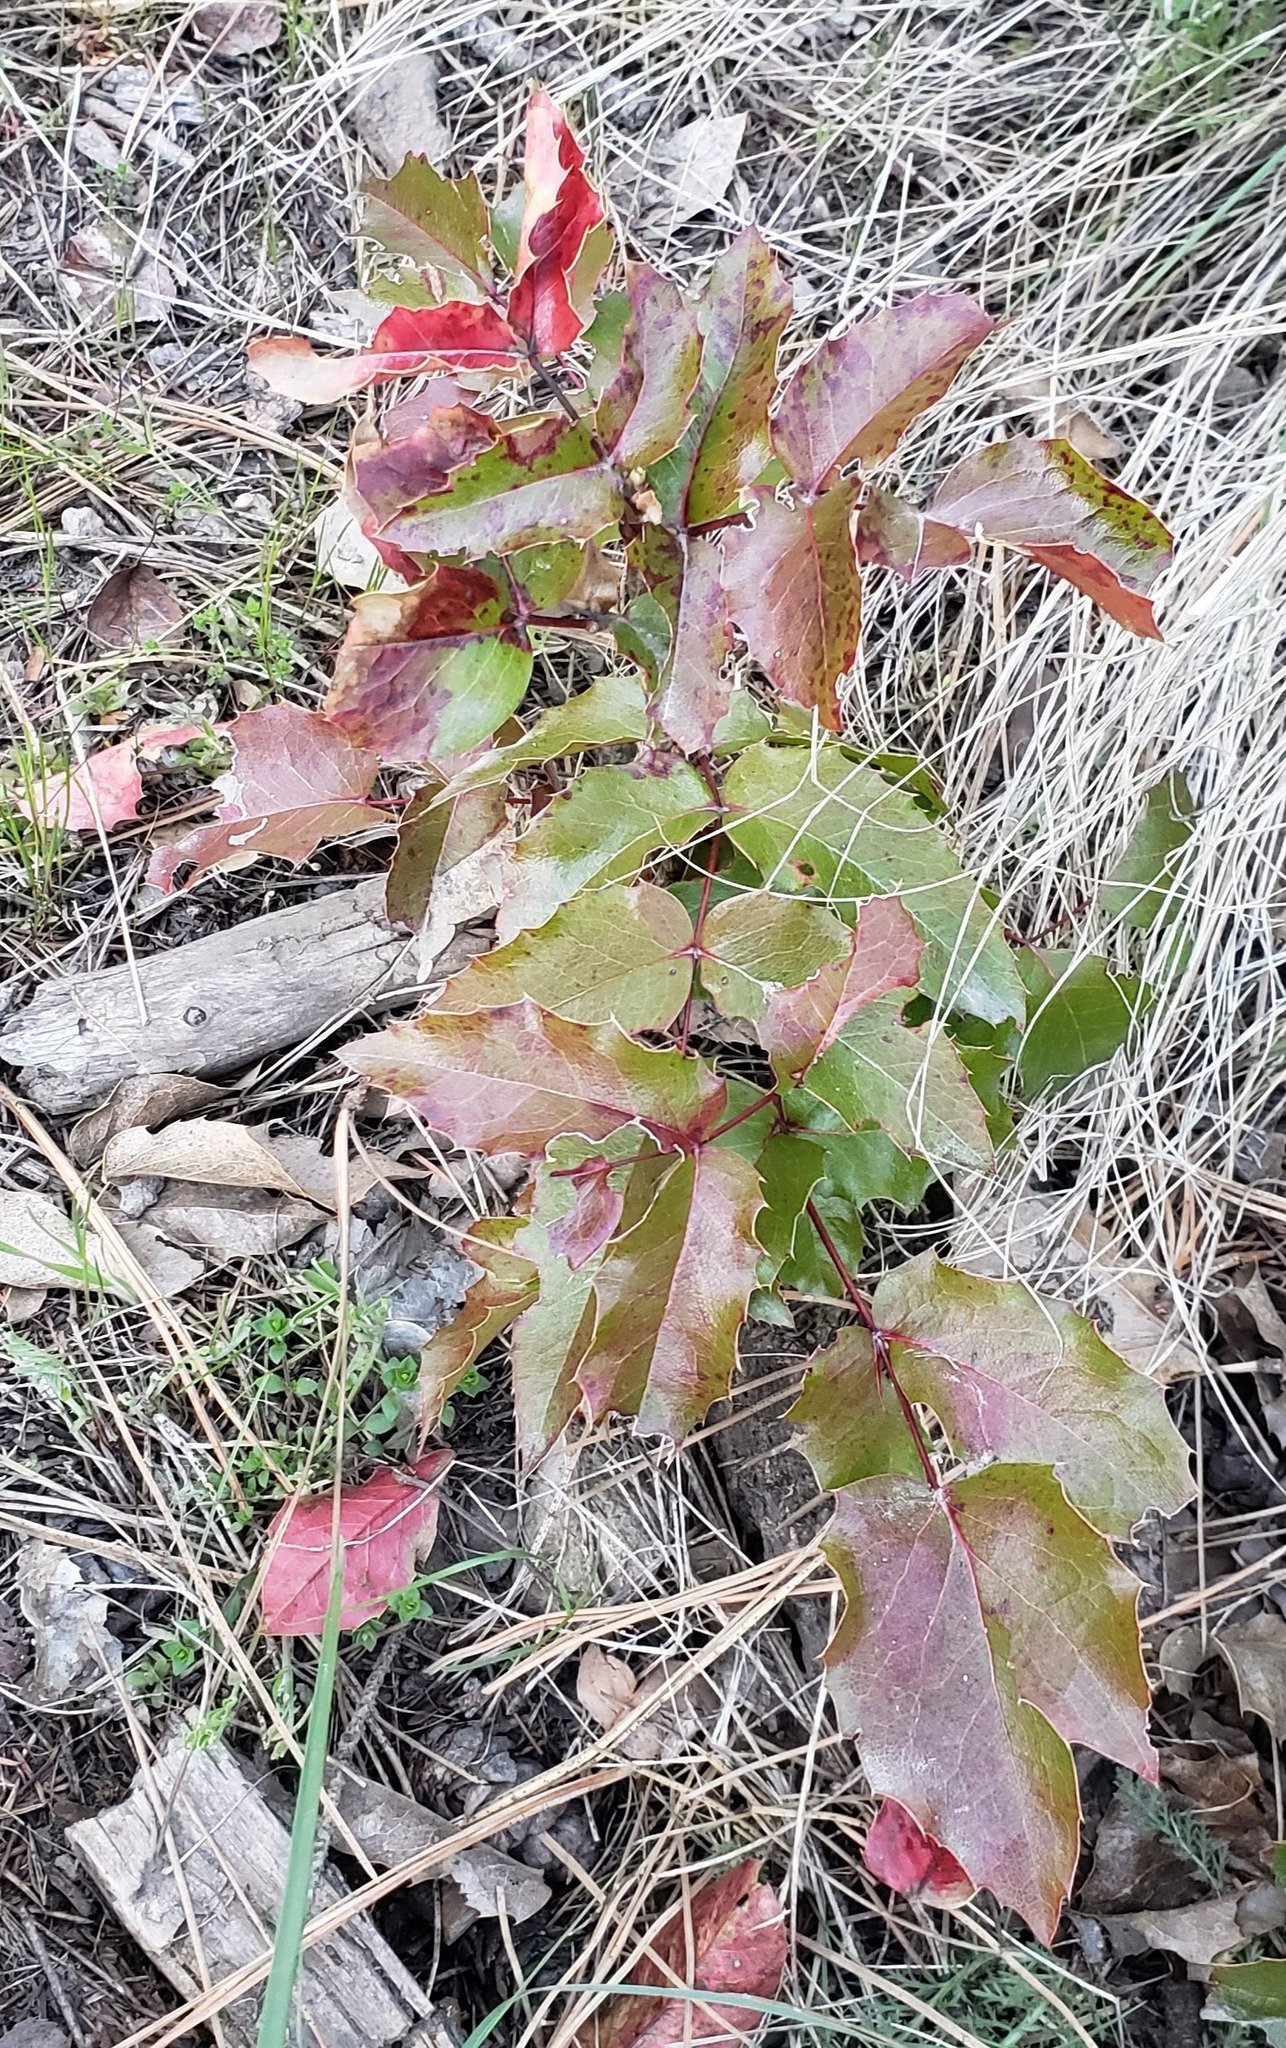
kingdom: Plantae
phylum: Tracheophyta
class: Magnoliopsida
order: Ranunculales
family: Berberidaceae
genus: Mahonia
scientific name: Mahonia aquifolium
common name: Oregon-grape
